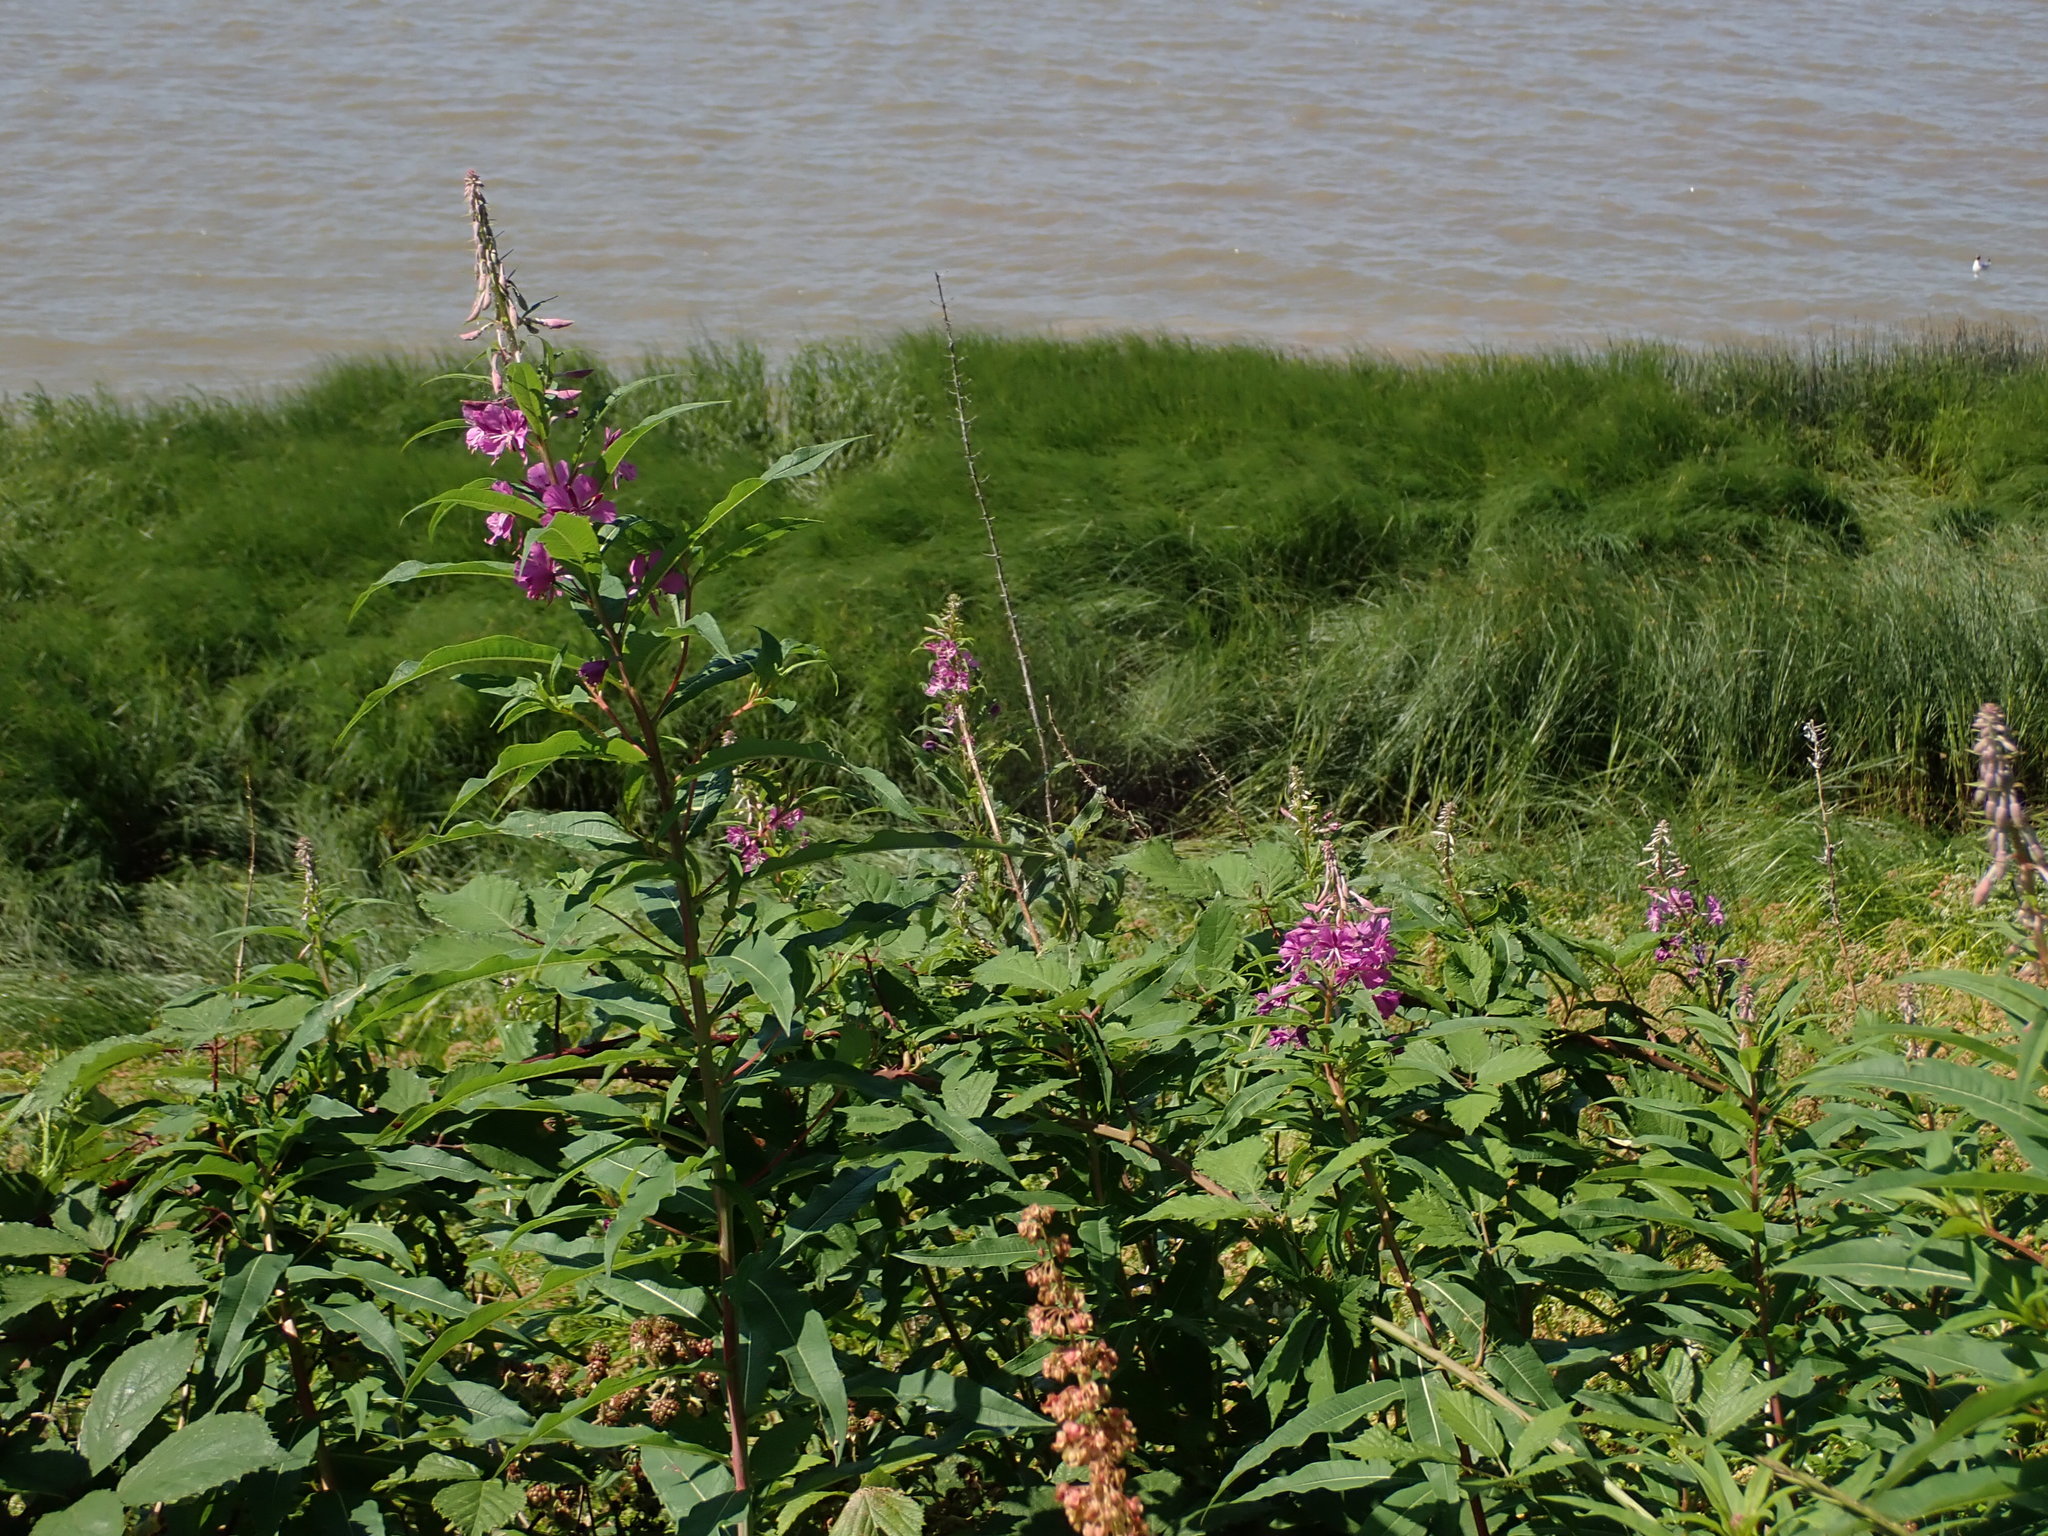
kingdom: Plantae
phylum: Tracheophyta
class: Magnoliopsida
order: Myrtales
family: Onagraceae
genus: Chamaenerion
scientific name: Chamaenerion angustifolium
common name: Fireweed
